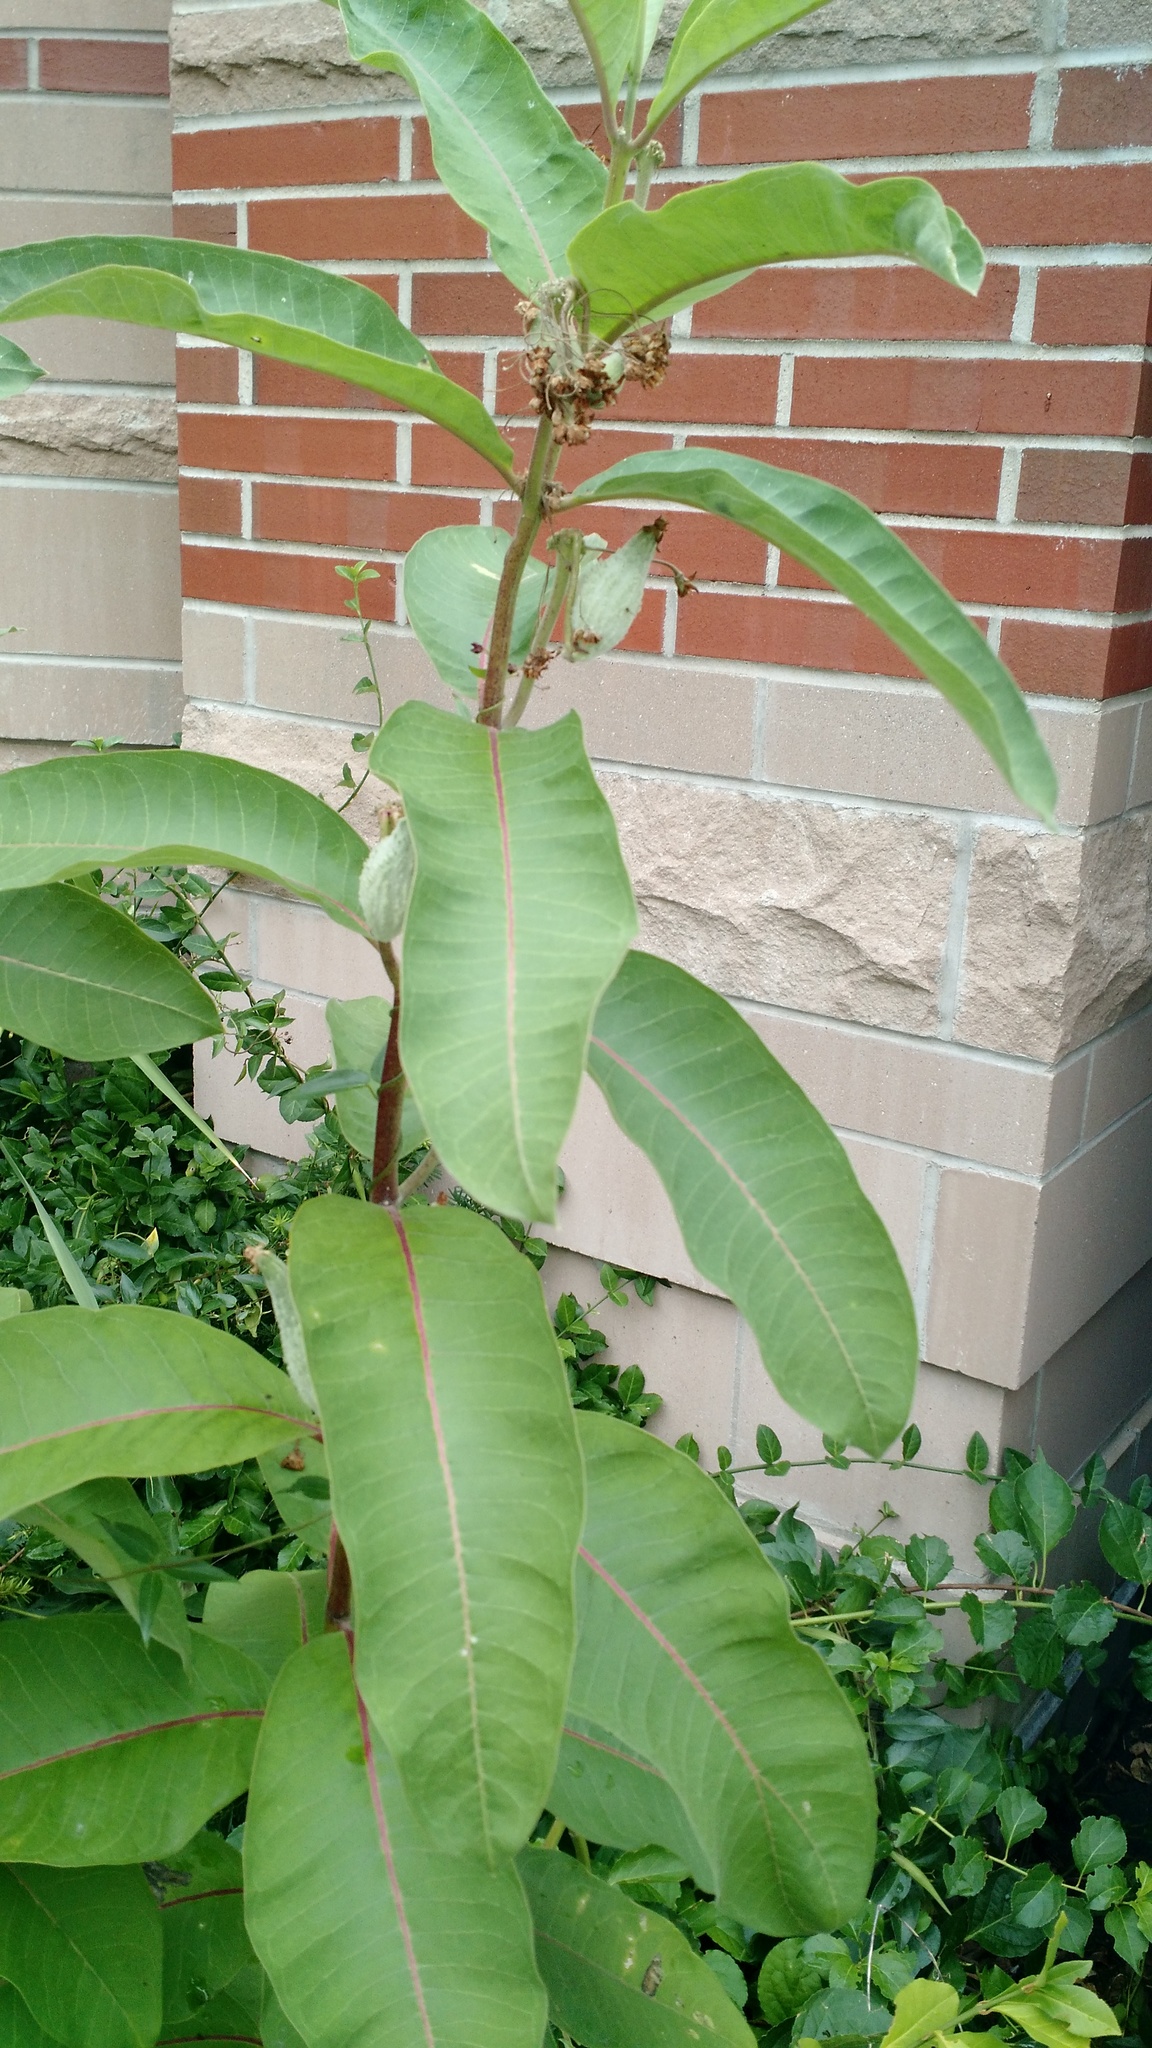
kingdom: Plantae
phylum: Tracheophyta
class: Magnoliopsida
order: Gentianales
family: Apocynaceae
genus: Asclepias
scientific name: Asclepias syriaca
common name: Common milkweed
